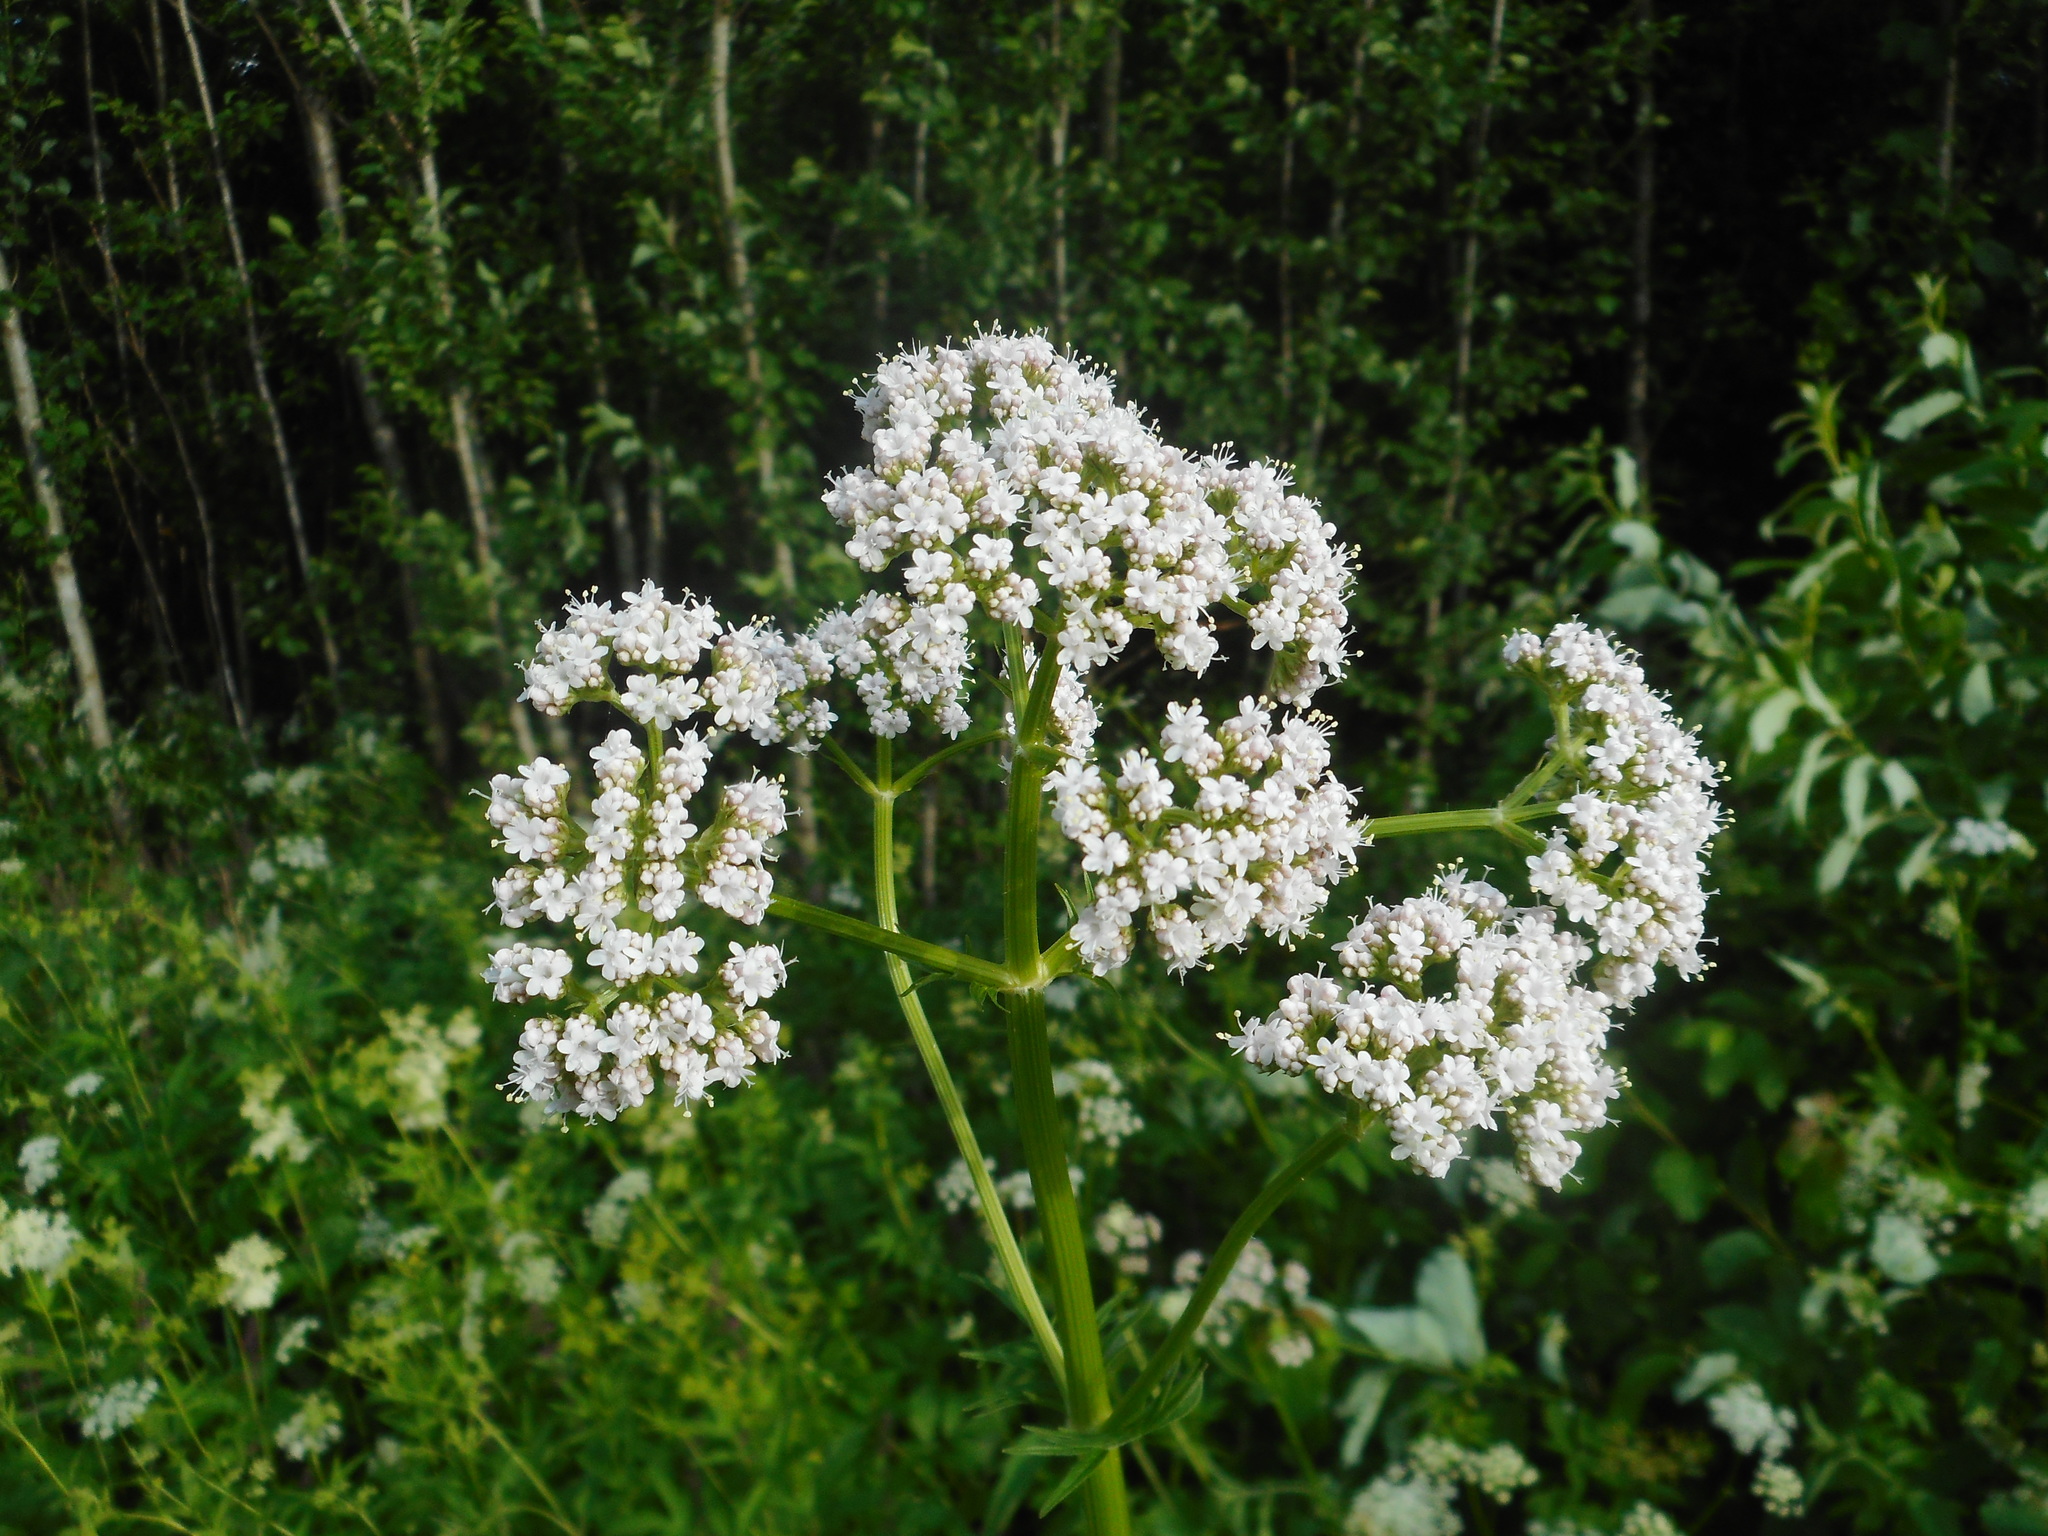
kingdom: Plantae
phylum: Tracheophyta
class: Magnoliopsida
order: Dipsacales
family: Caprifoliaceae
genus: Valeriana
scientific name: Valeriana officinalis
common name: Common valerian
